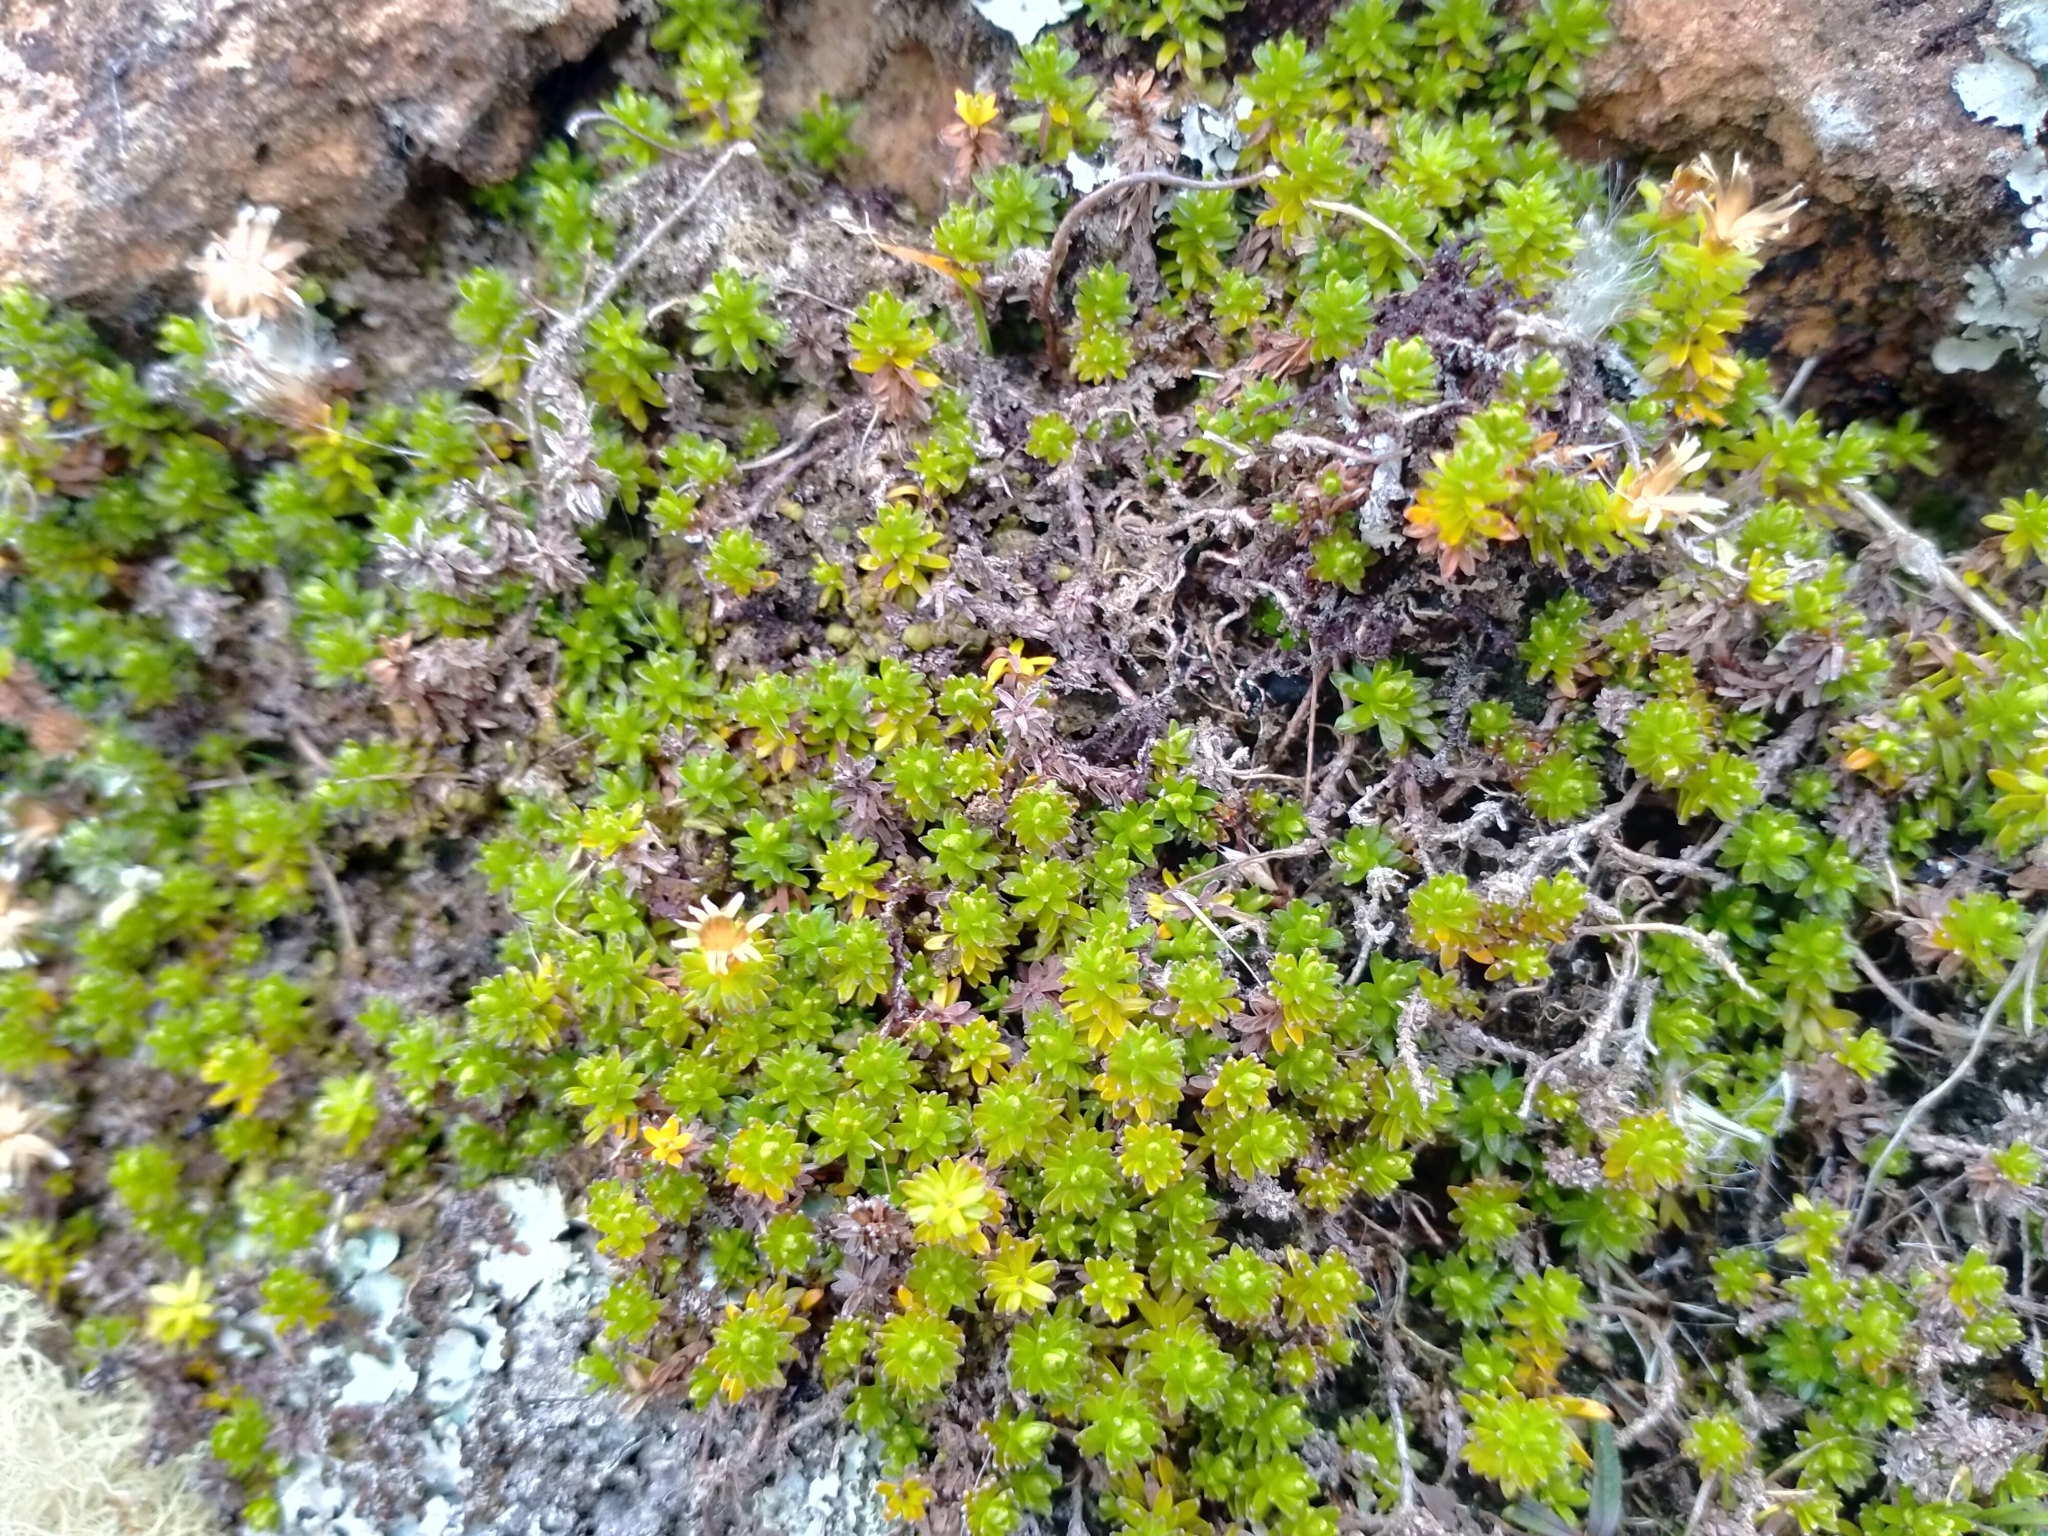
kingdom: Plantae
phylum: Tracheophyta
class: Magnoliopsida
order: Asterales
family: Asteraceae
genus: Raoulia
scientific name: Raoulia glabra
